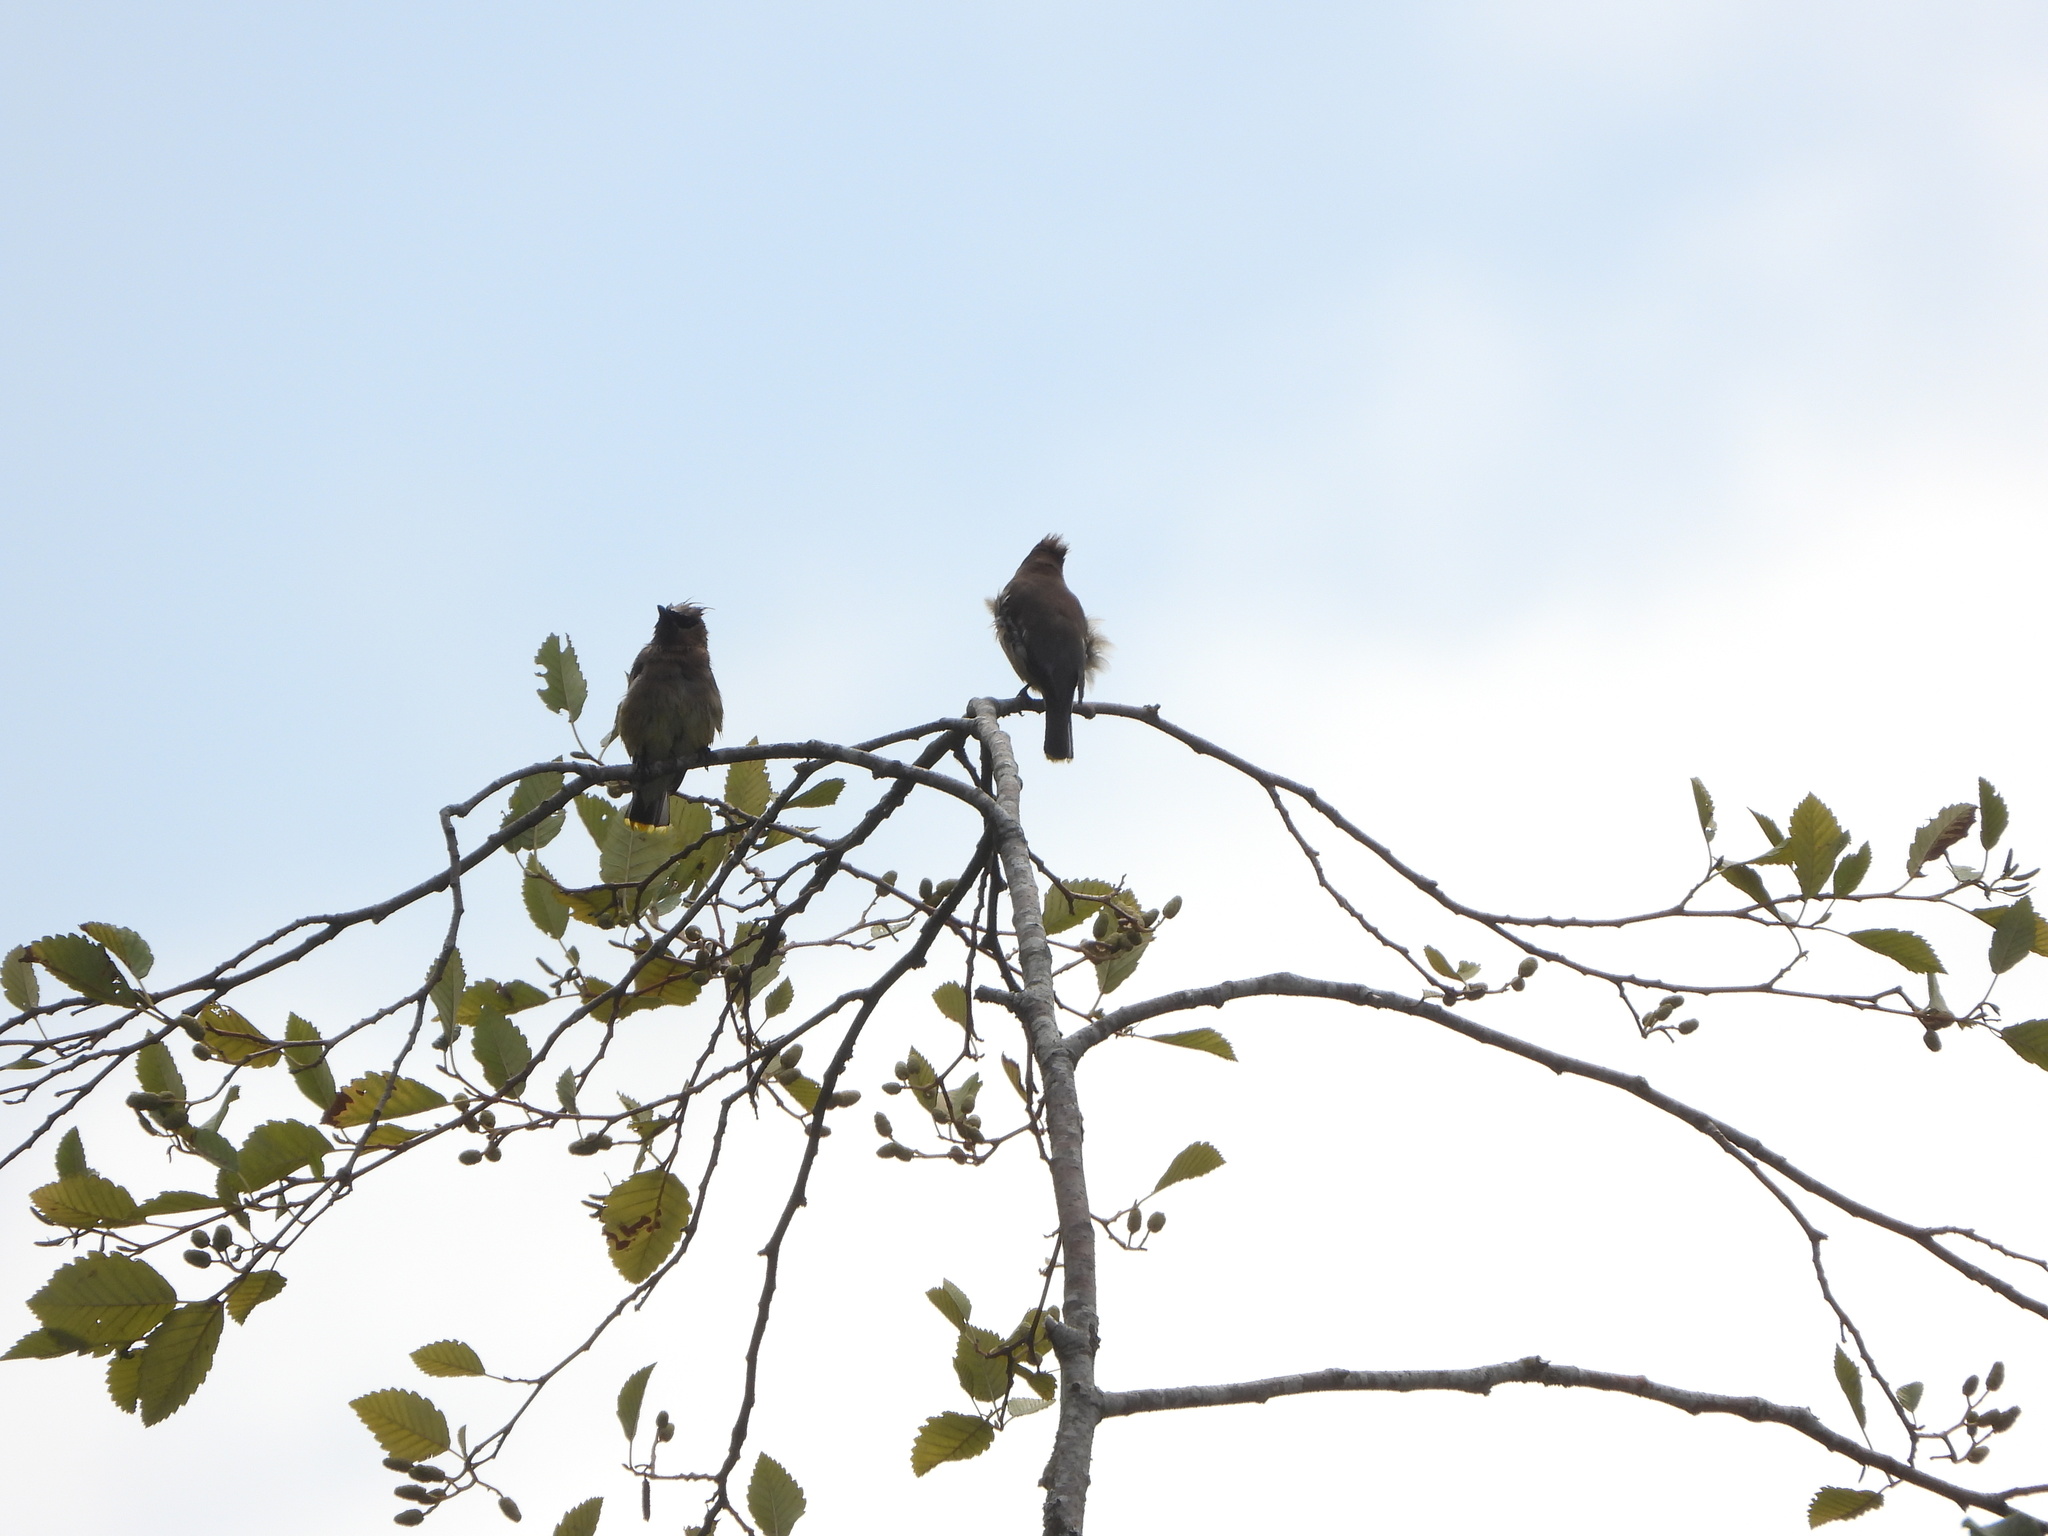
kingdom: Animalia
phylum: Chordata
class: Aves
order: Passeriformes
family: Bombycillidae
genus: Bombycilla
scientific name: Bombycilla cedrorum
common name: Cedar waxwing
